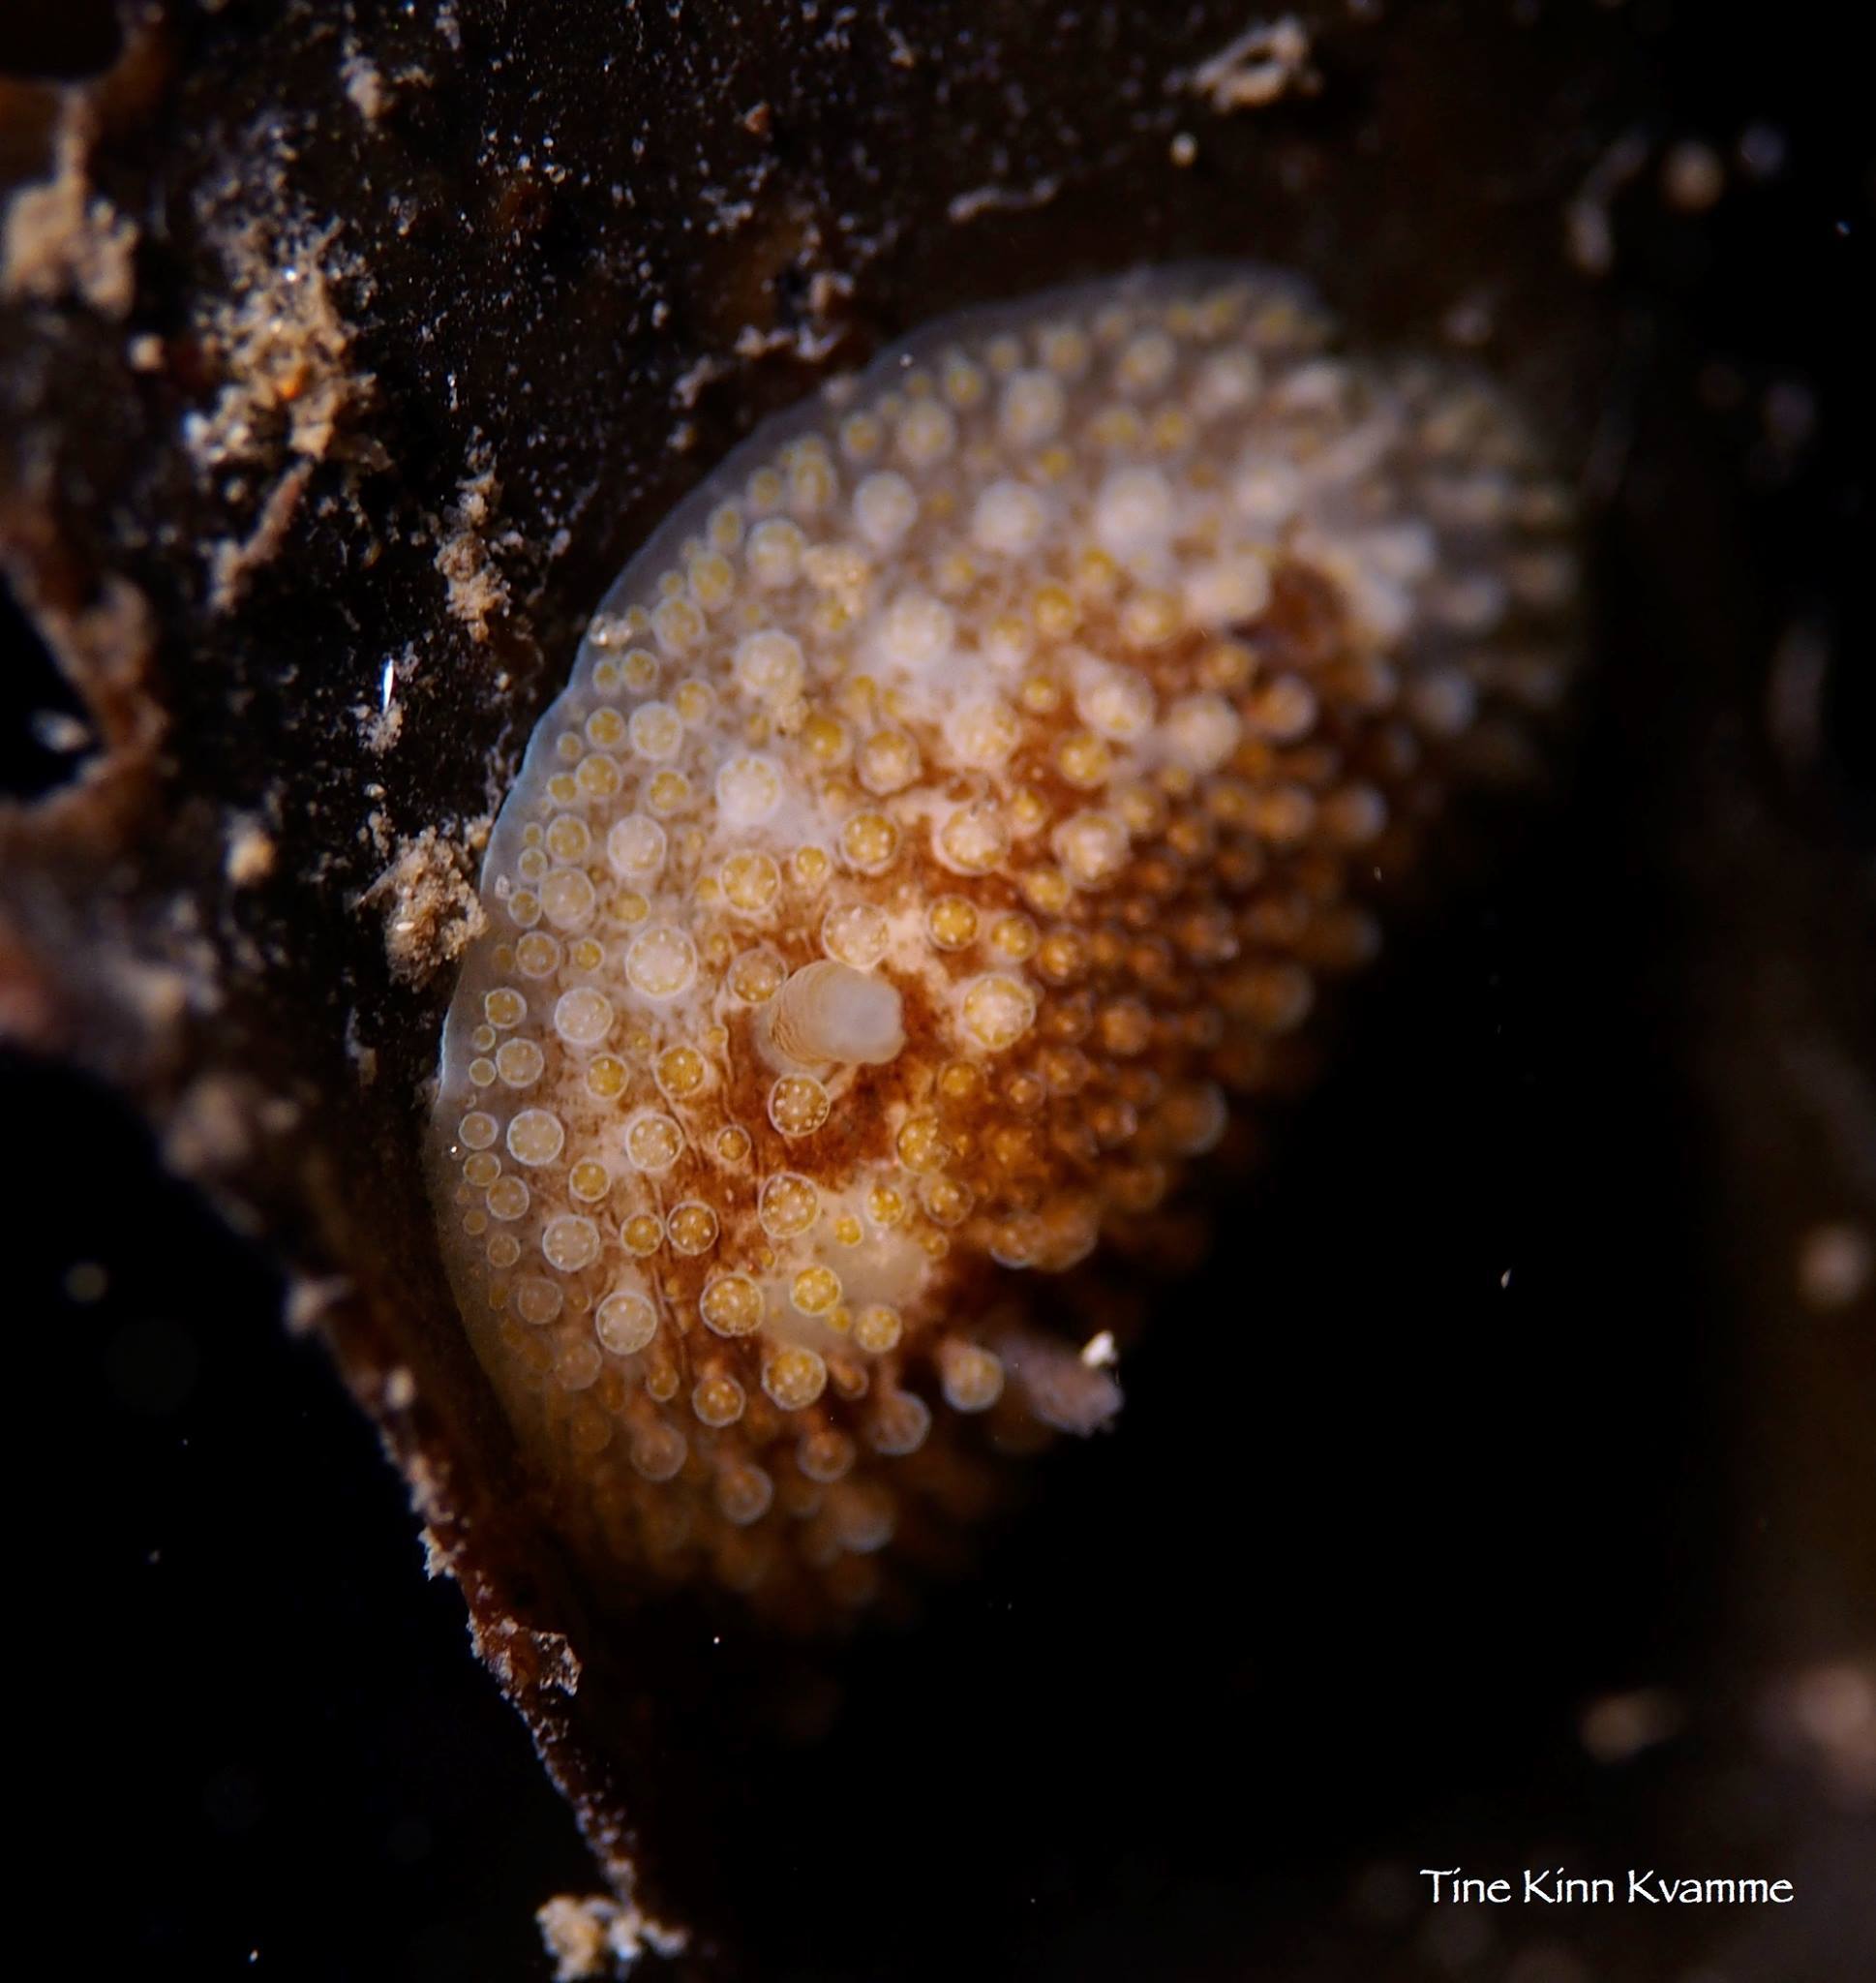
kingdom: Animalia
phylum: Mollusca
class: Gastropoda
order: Nudibranchia
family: Onchidorididae
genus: Onchidoris
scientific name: Onchidoris bilamellata
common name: Barnacle-eating onchidoris
